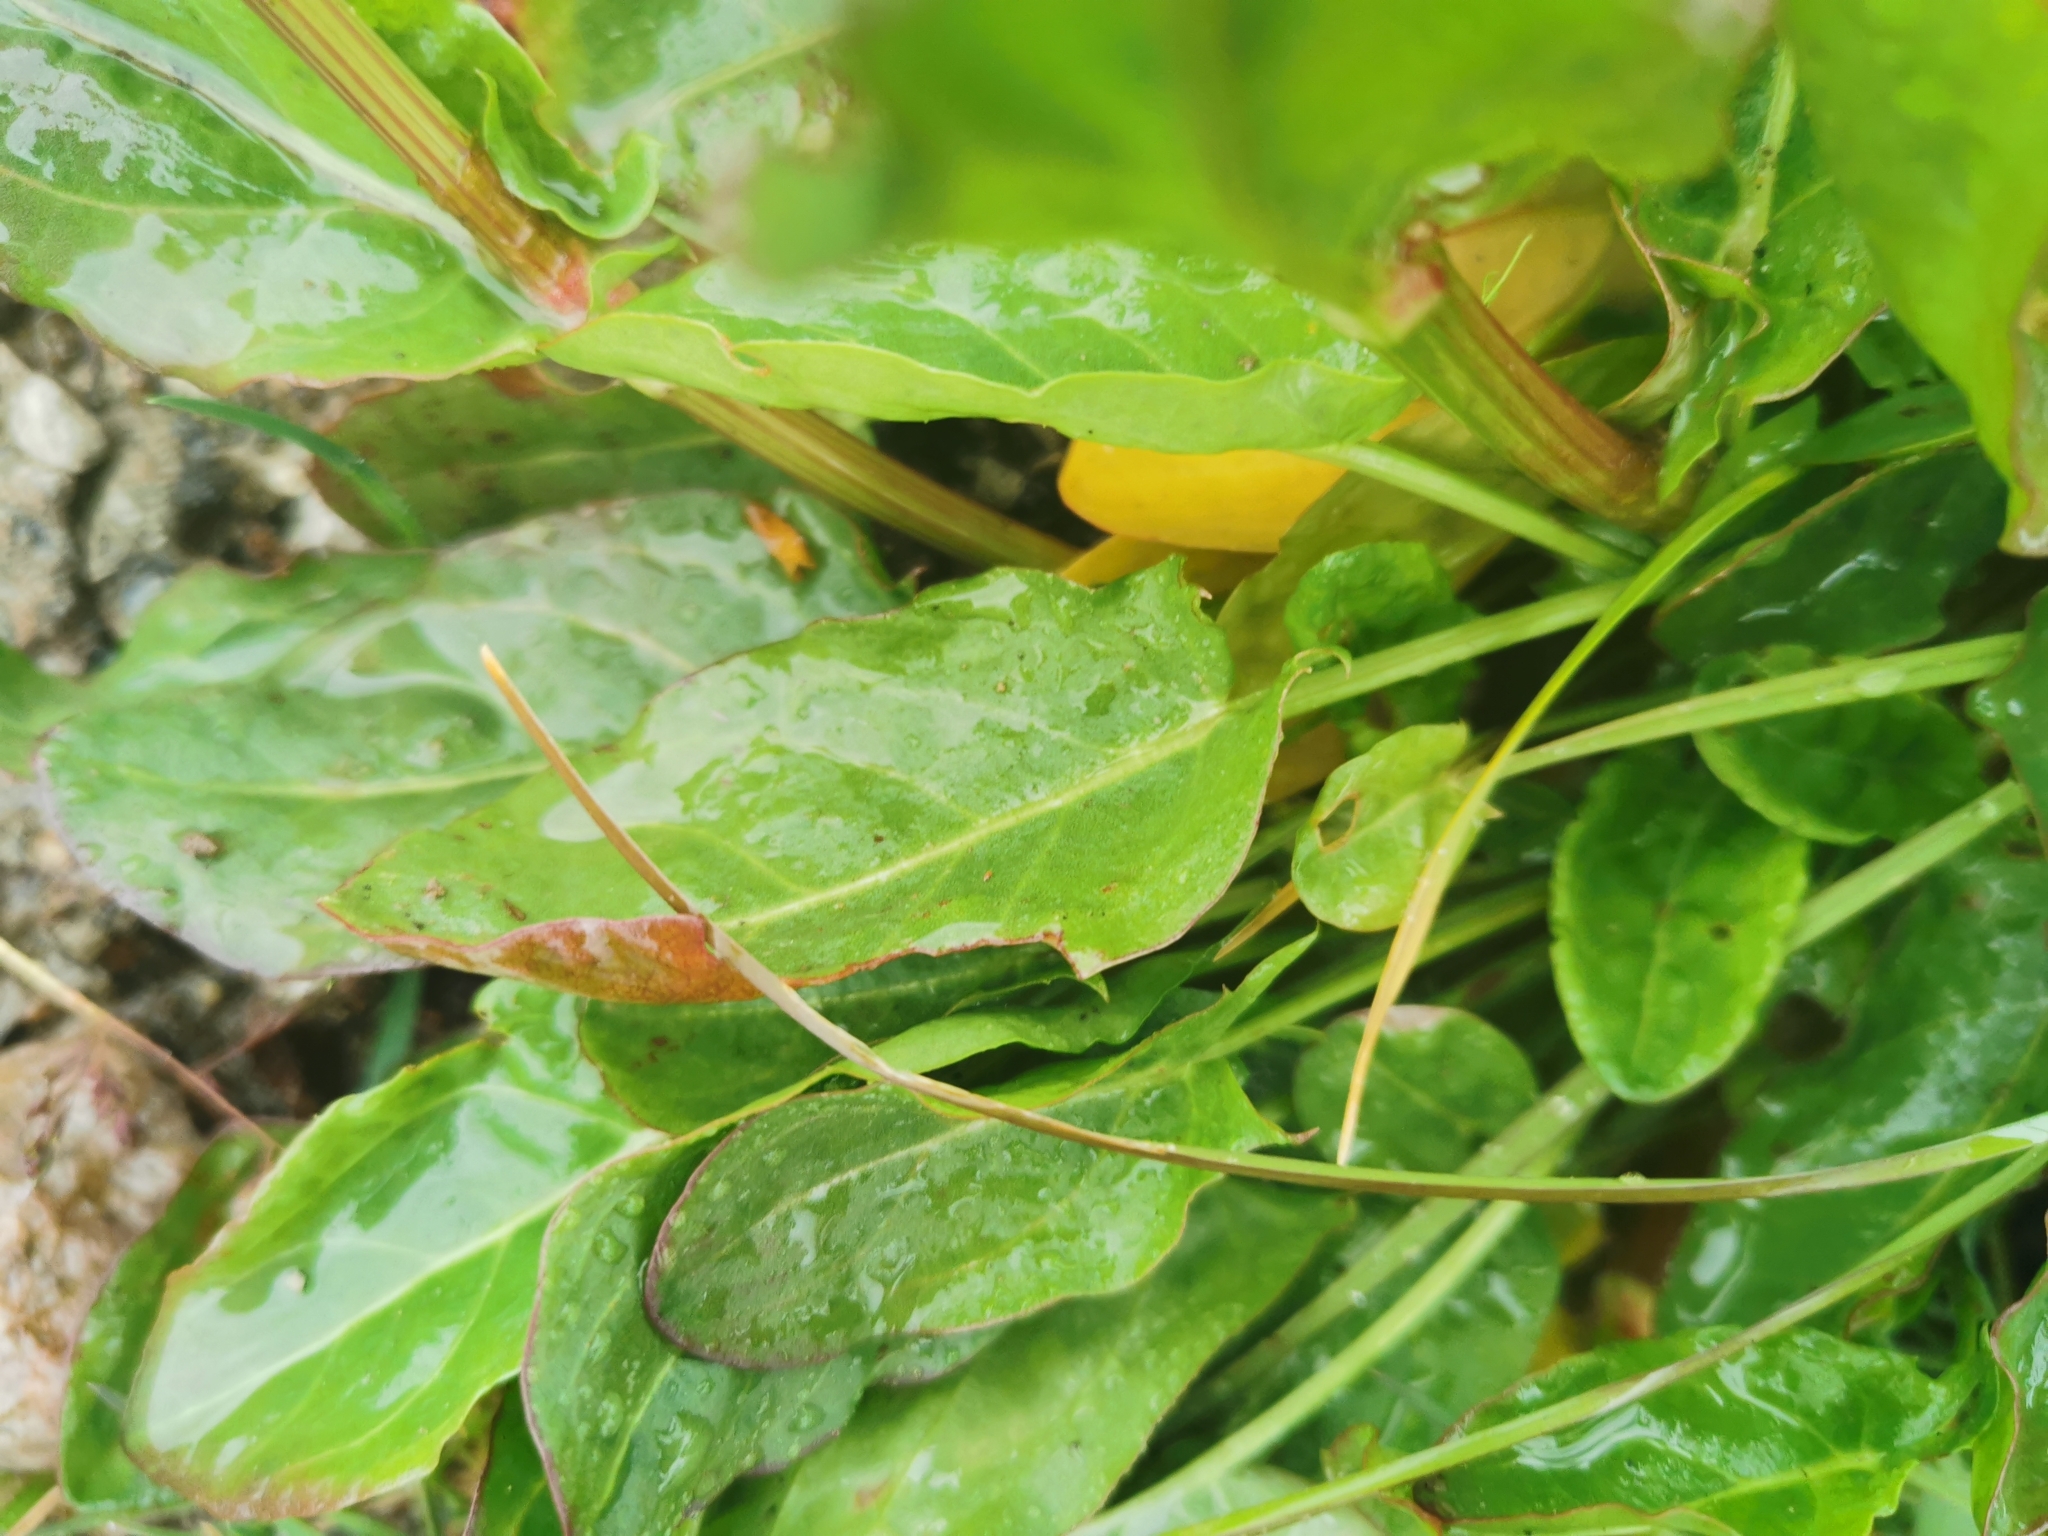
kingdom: Plantae
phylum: Tracheophyta
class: Magnoliopsida
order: Caryophyllales
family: Polygonaceae
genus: Rumex
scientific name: Rumex acetosa
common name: Garden sorrel
